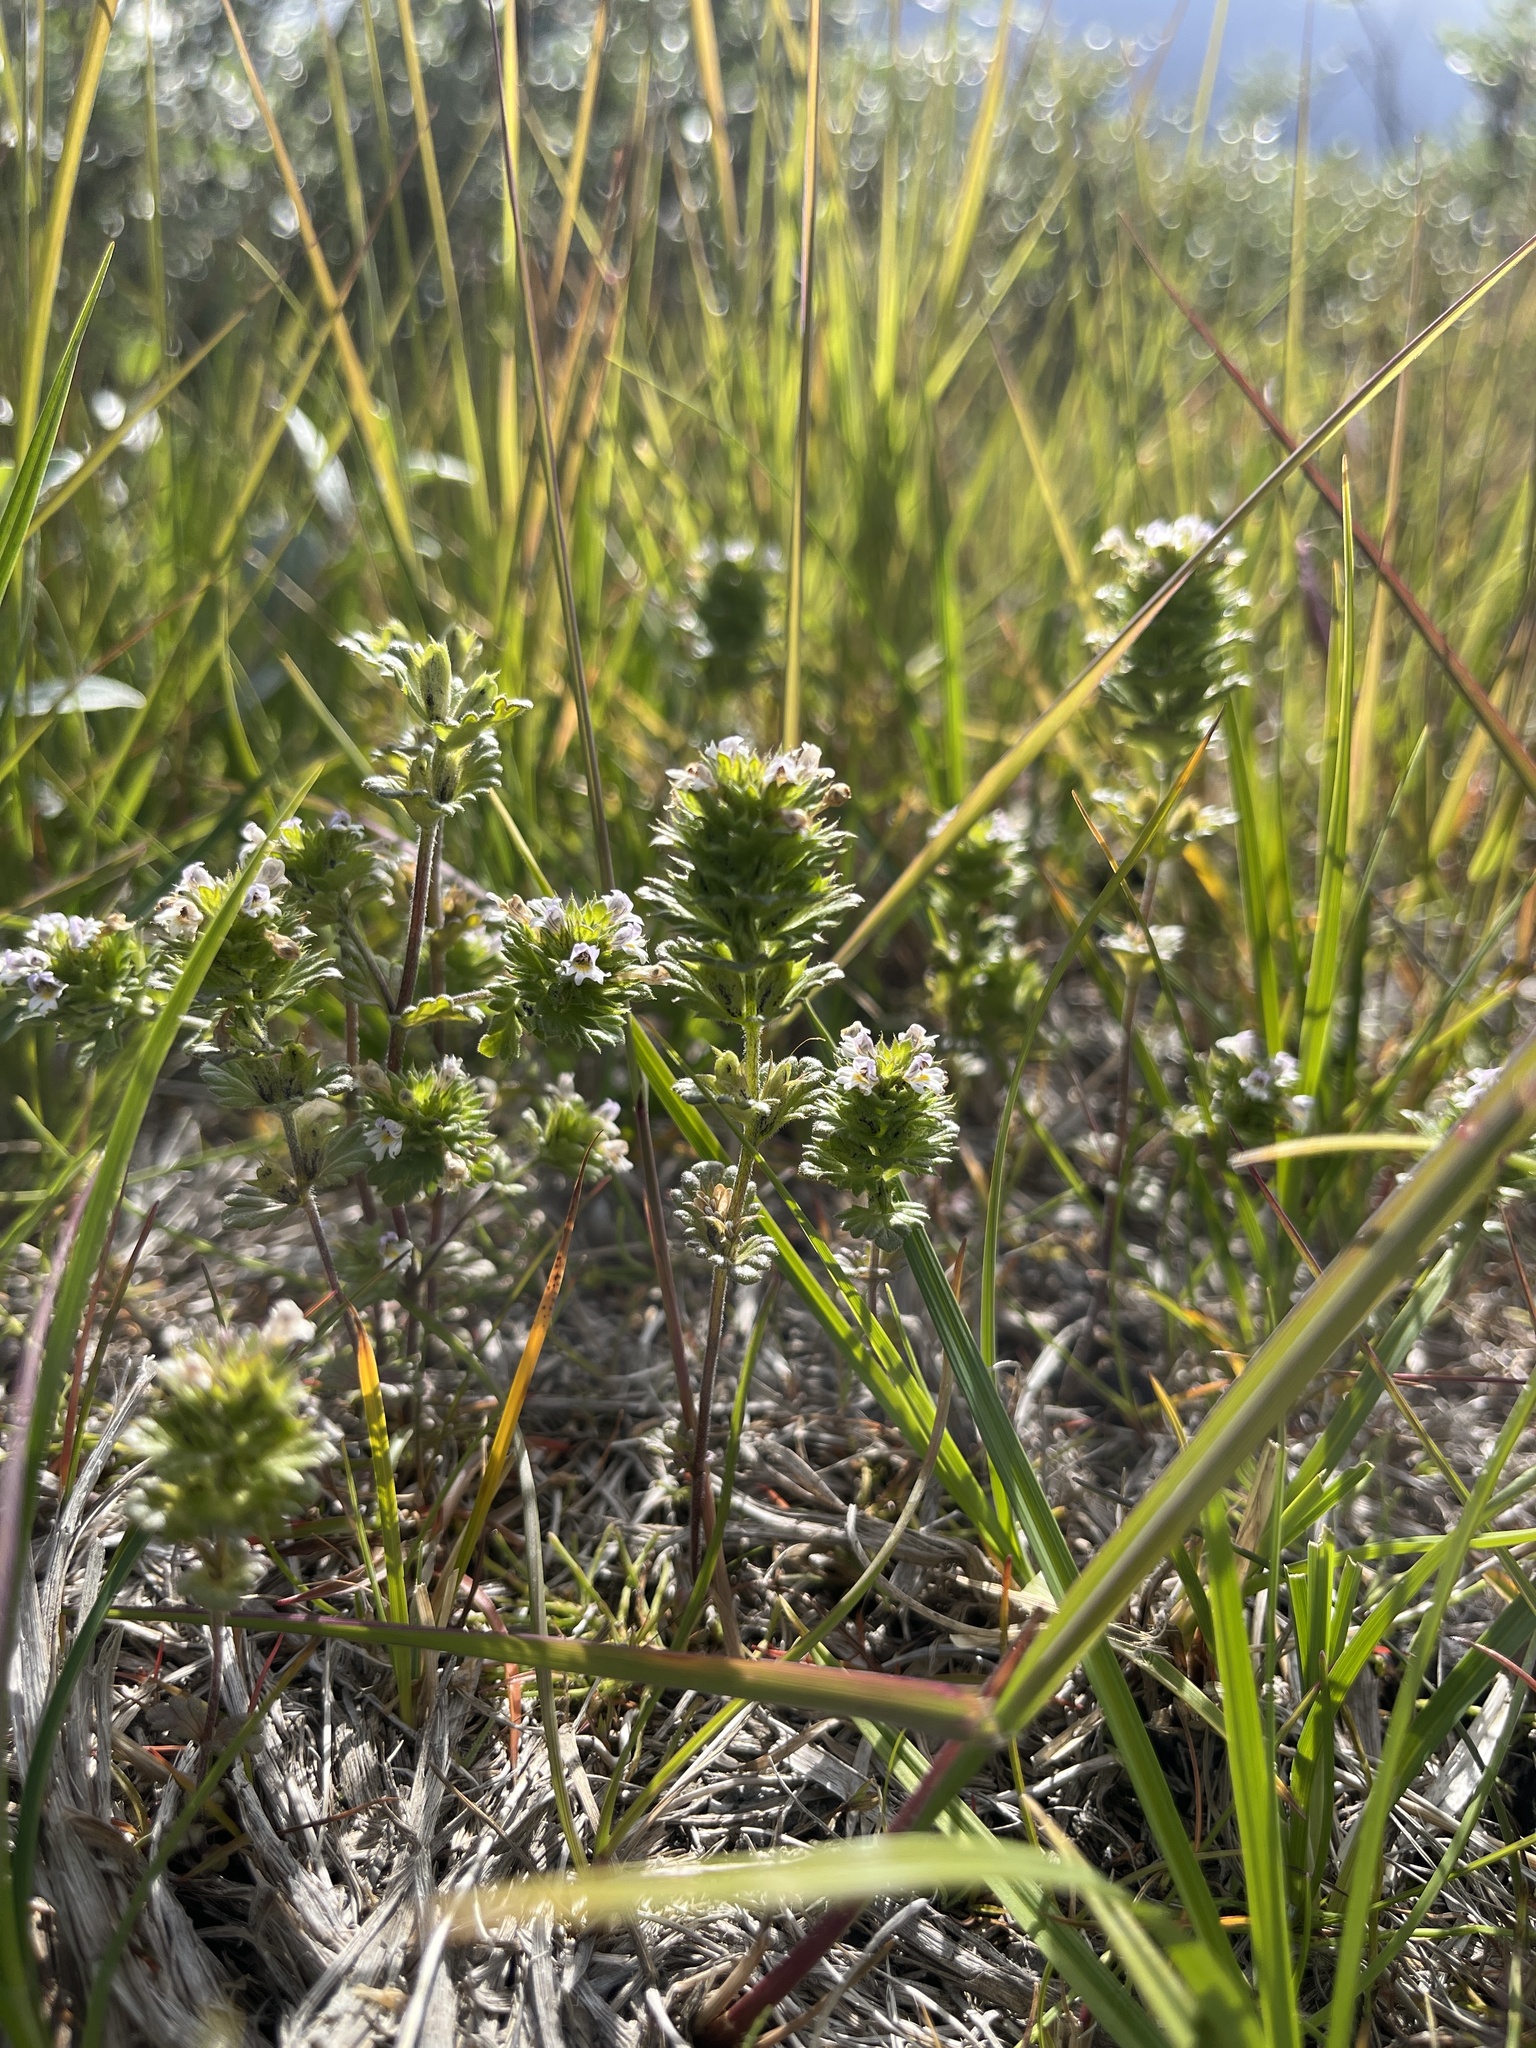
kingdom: Plantae
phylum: Tracheophyta
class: Magnoliopsida
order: Lamiales
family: Orobanchaceae
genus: Euphrasia
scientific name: Euphrasia frigida
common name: An eyebright
